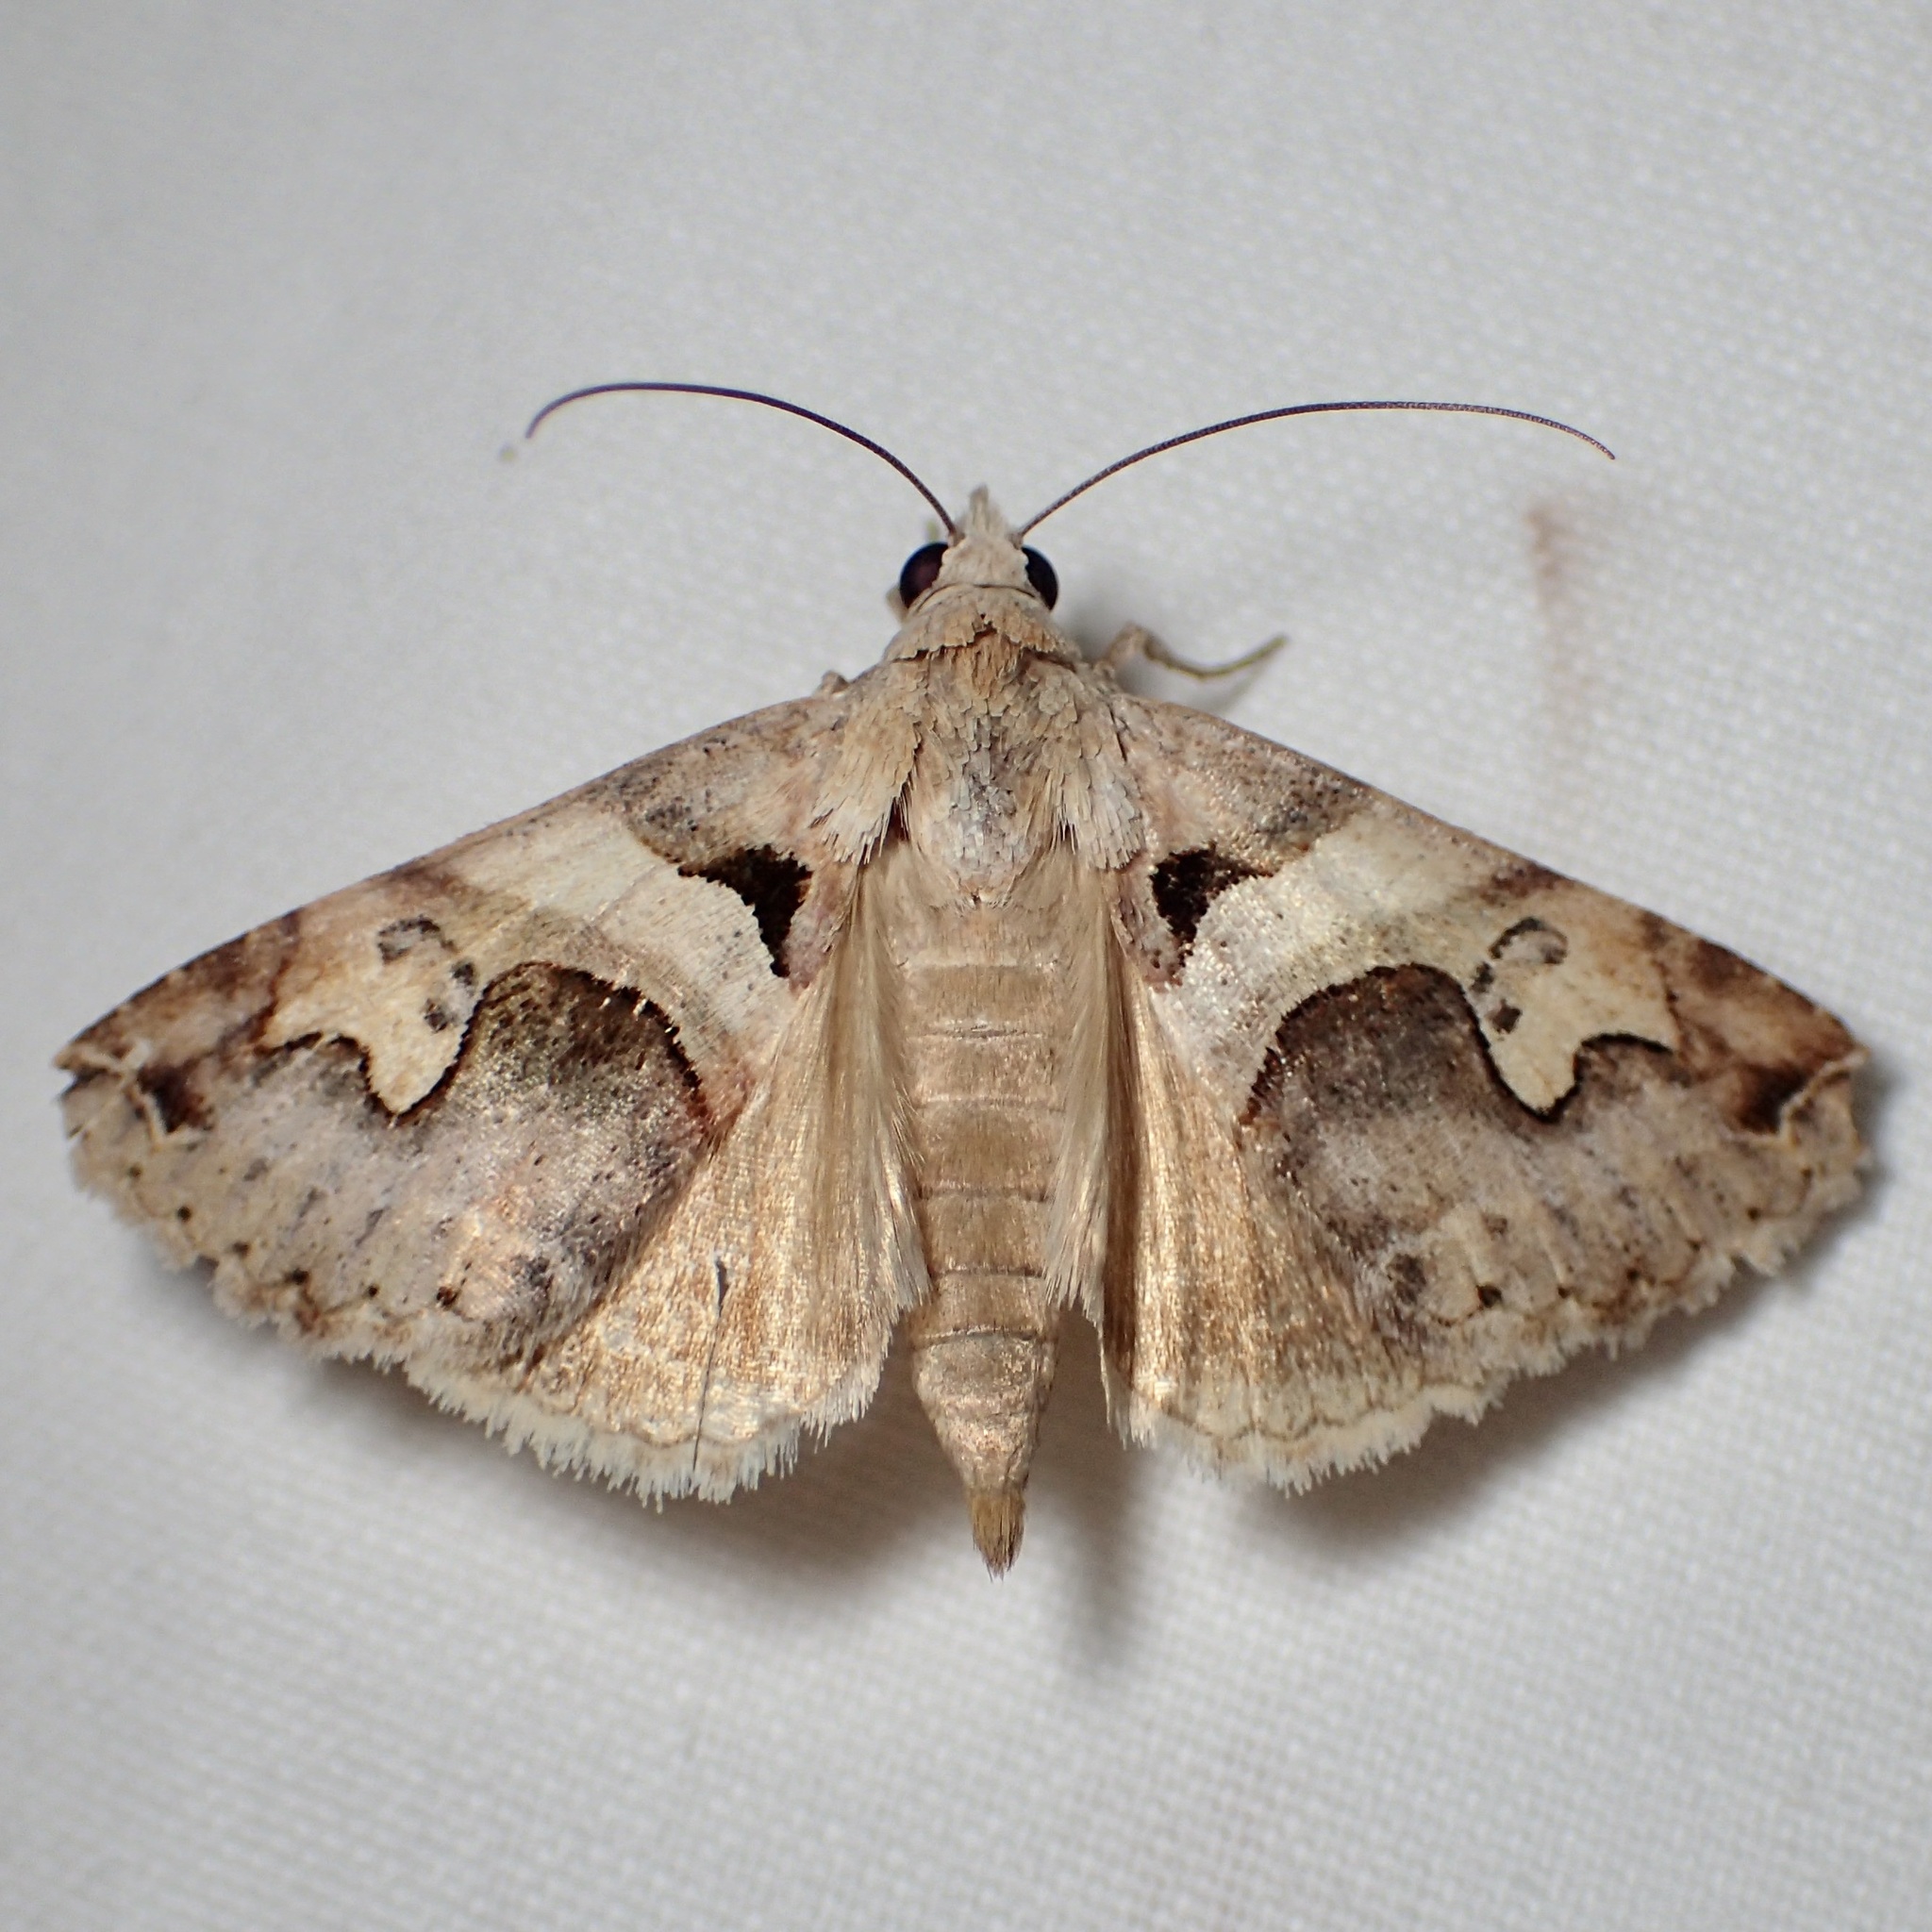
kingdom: Animalia
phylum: Arthropoda
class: Insecta
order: Lepidoptera
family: Erebidae
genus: Panula
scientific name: Panula inconstans
